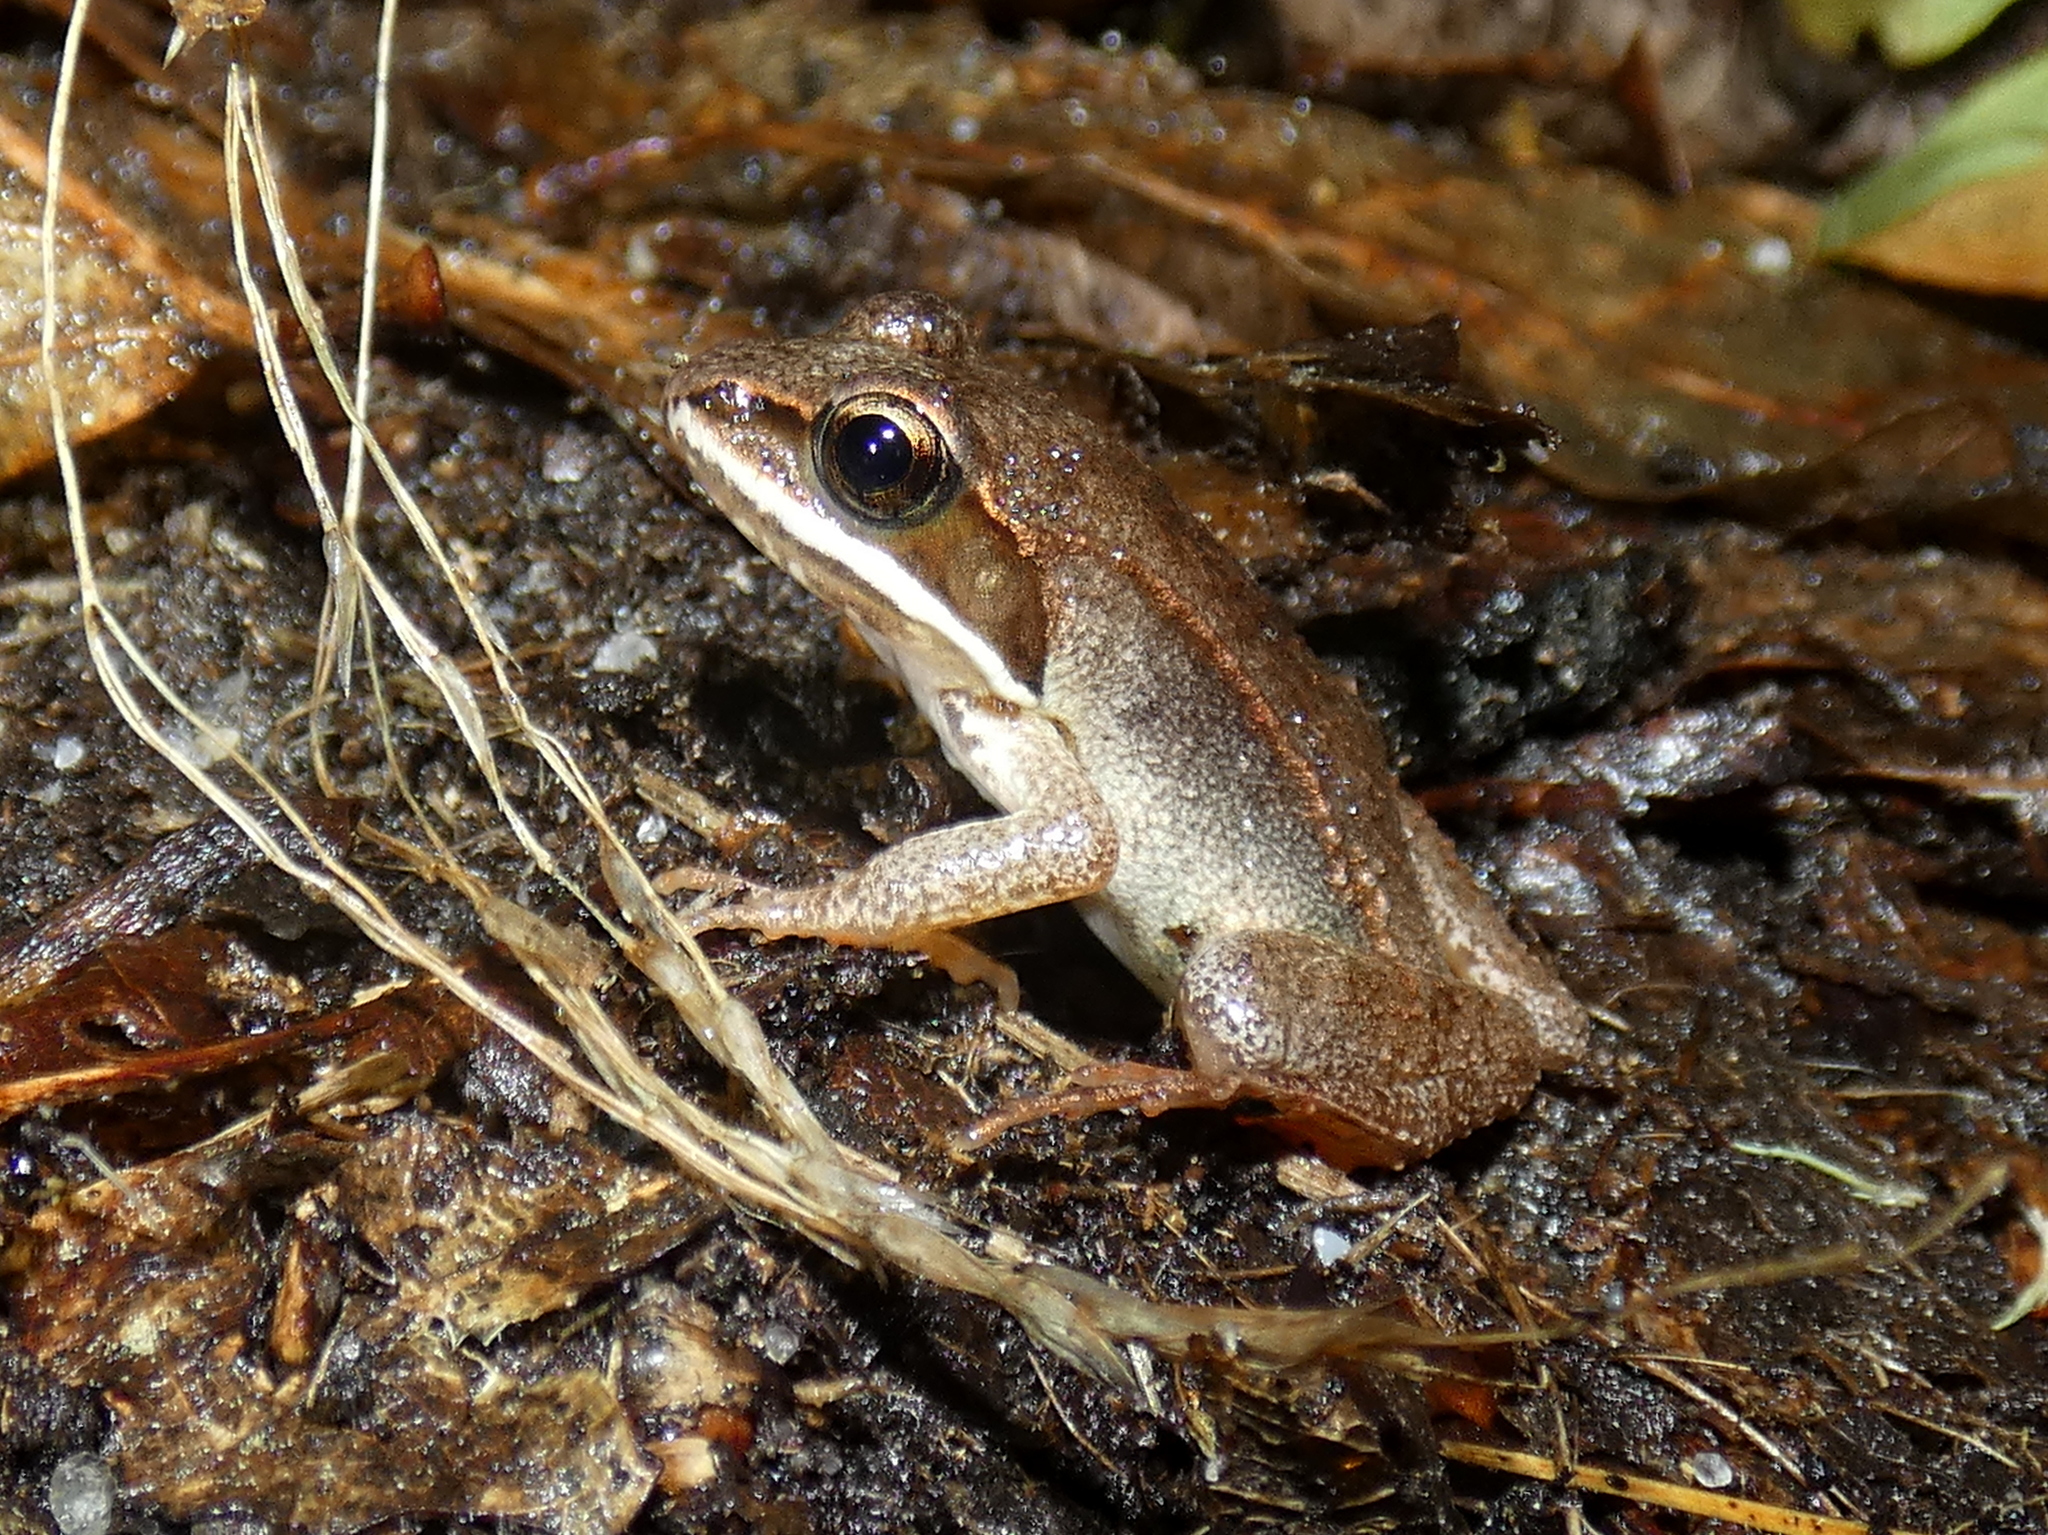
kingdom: Animalia
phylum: Chordata
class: Amphibia
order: Anura
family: Ranidae
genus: Lithobates
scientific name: Lithobates sylvaticus
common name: Wood frog
